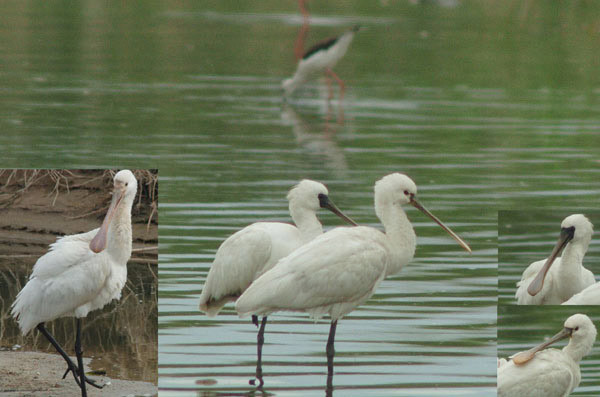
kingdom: Animalia
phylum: Chordata
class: Aves
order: Pelecaniformes
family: Threskiornithidae
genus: Platalea
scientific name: Platalea minor
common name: Black-faced spoonbill
